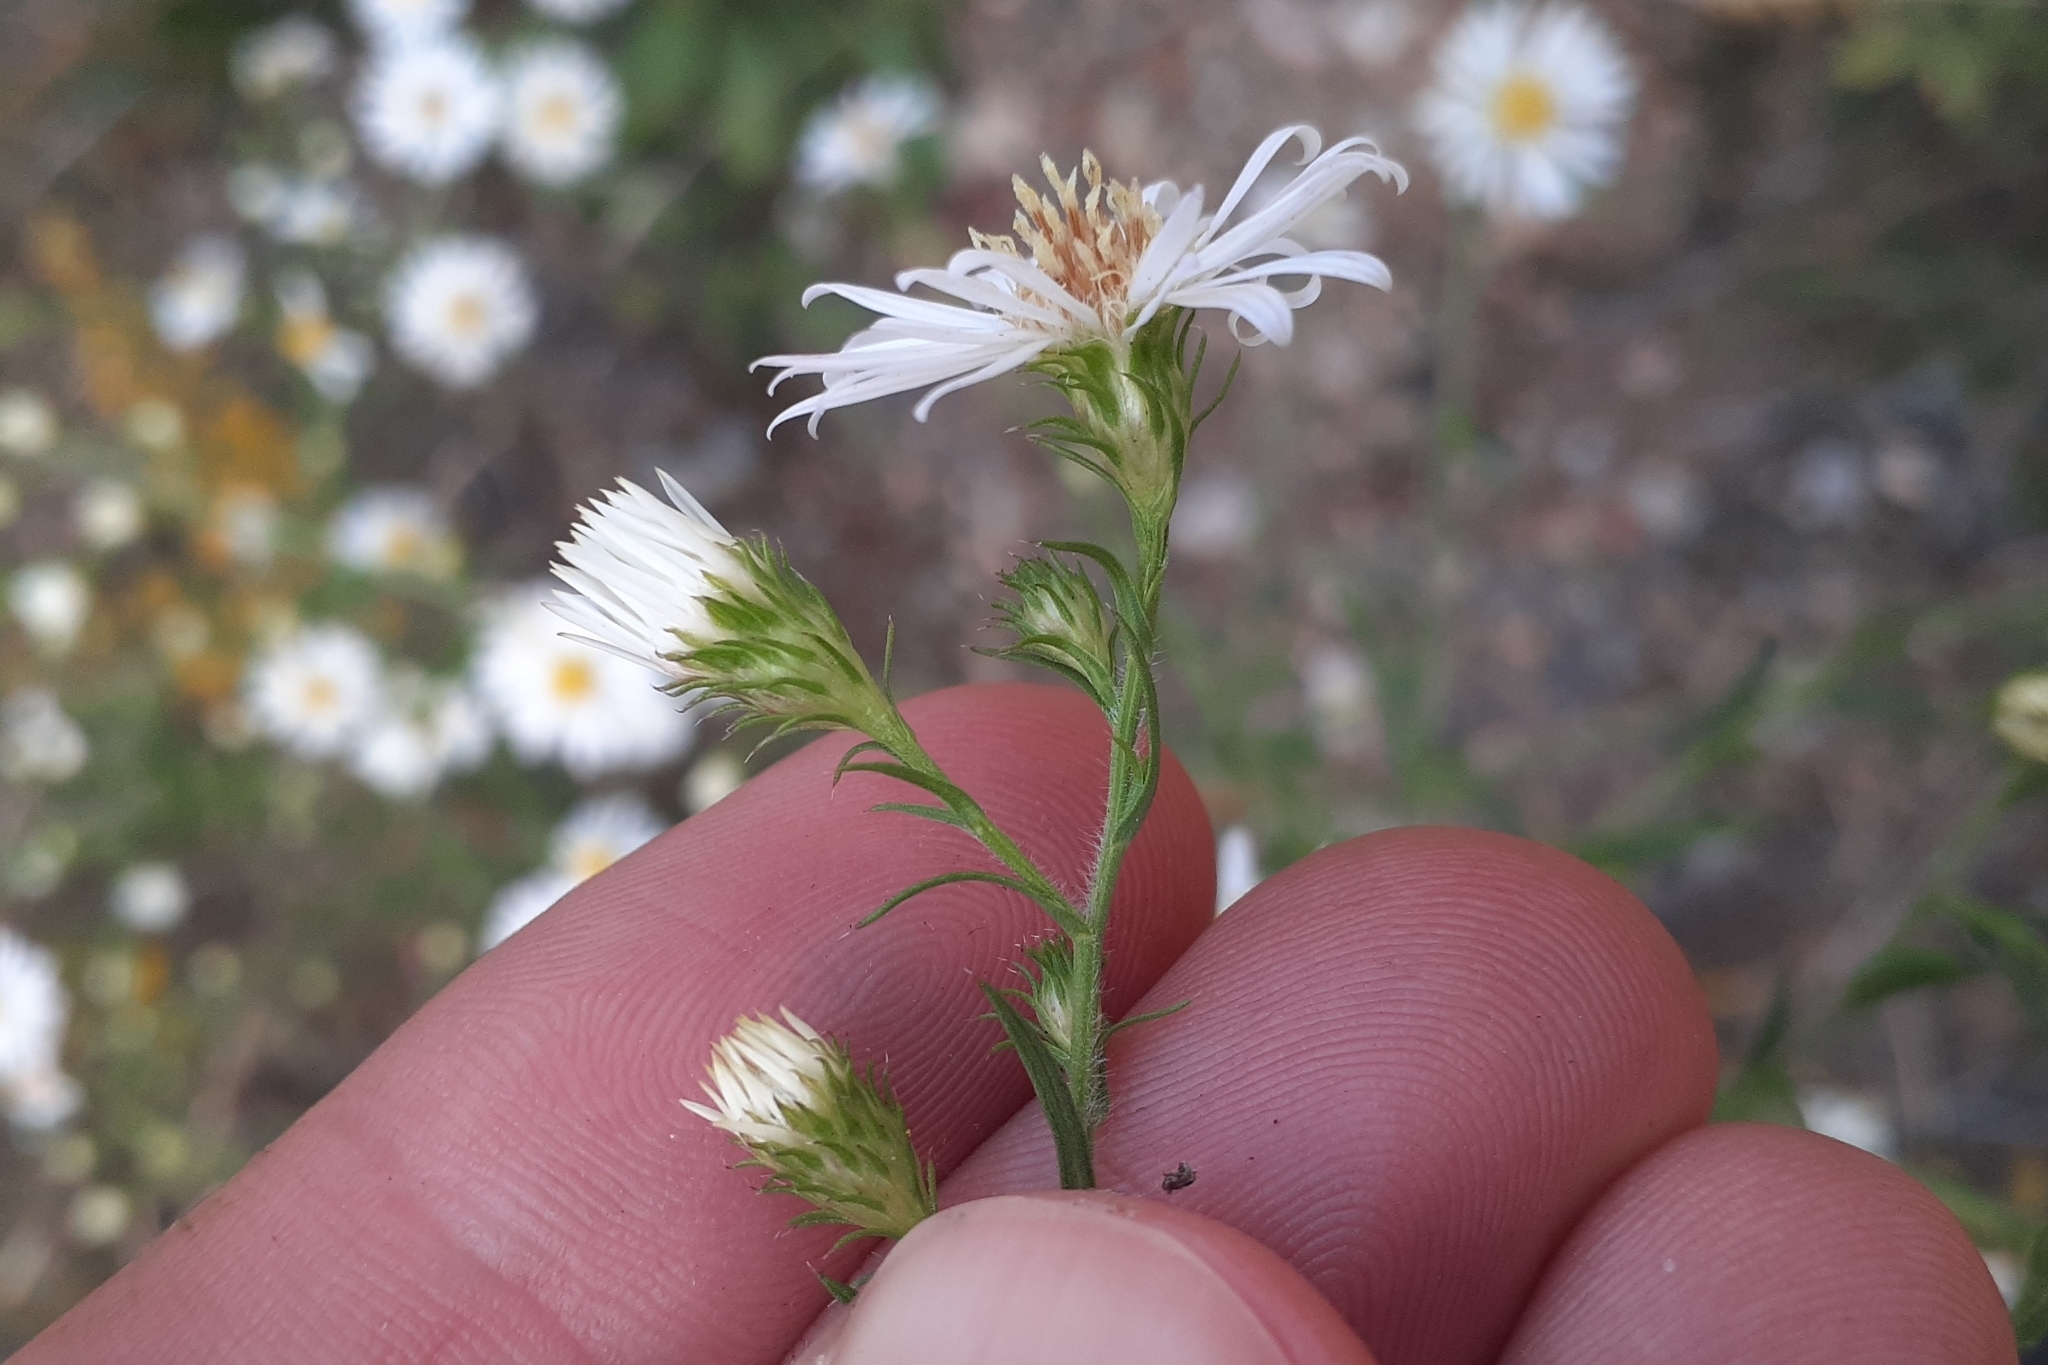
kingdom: Plantae
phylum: Tracheophyta
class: Magnoliopsida
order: Asterales
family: Asteraceae
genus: Symphyotrichum
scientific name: Symphyotrichum pilosum
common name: Awl aster
